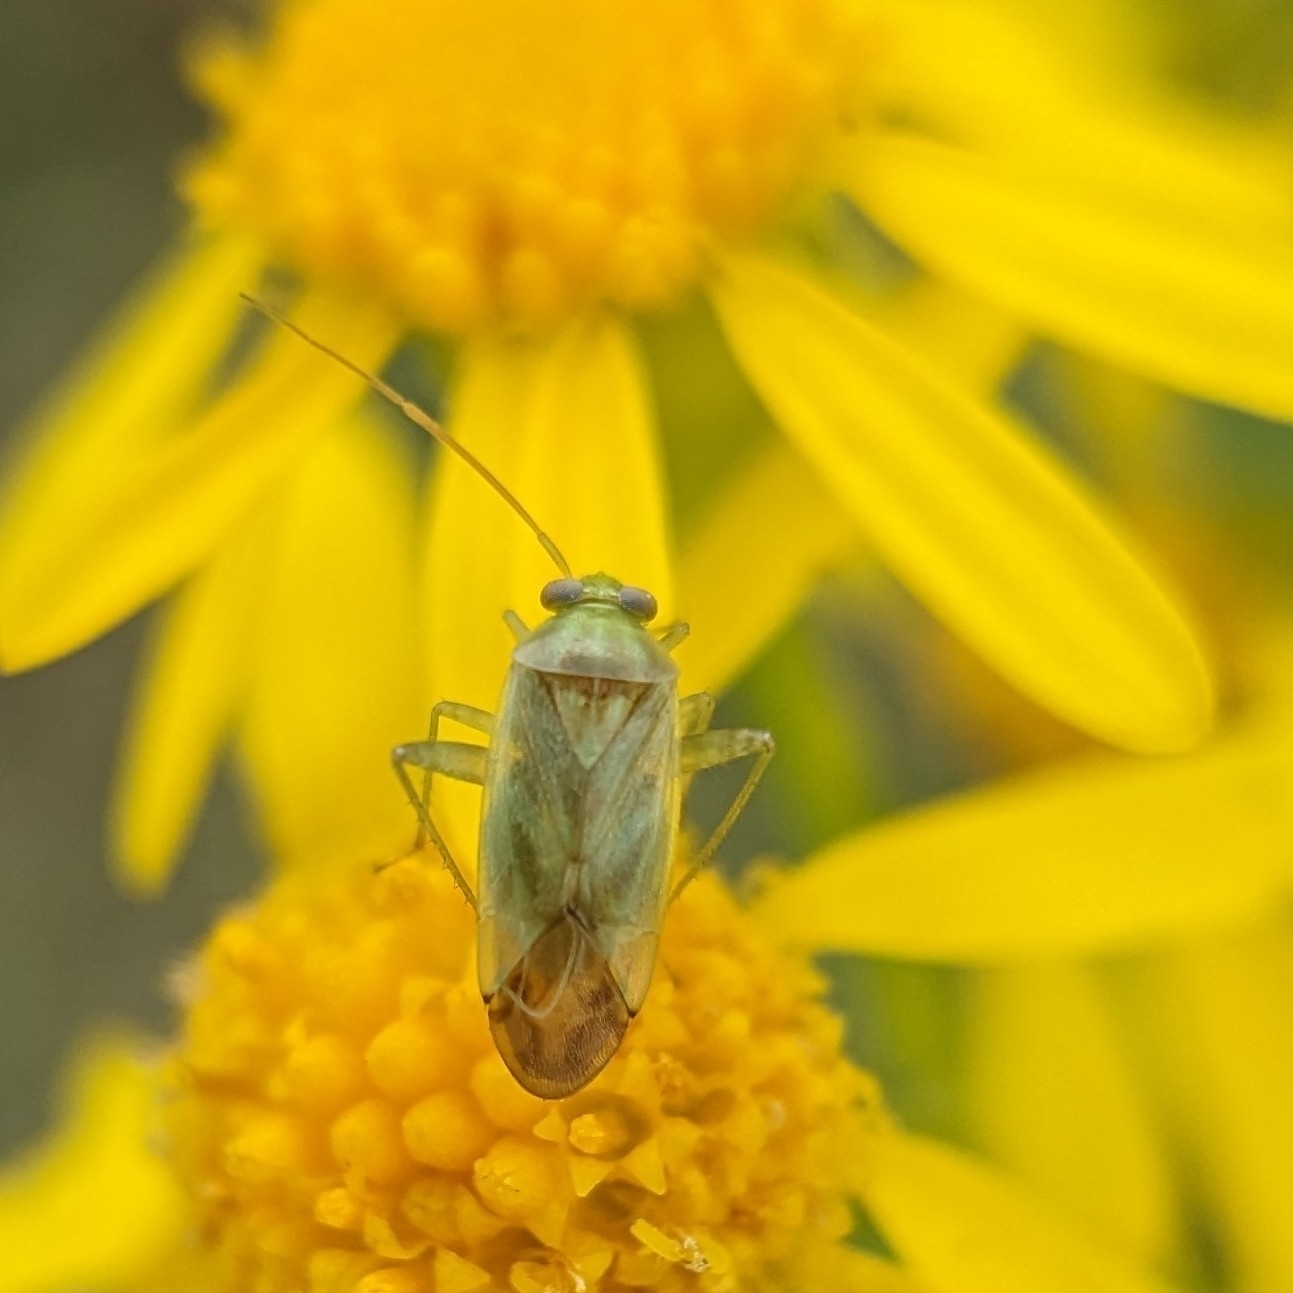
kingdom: Animalia
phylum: Arthropoda
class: Insecta
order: Hemiptera
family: Miridae
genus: Taylorilygus
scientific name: Taylorilygus apicalis
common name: Plant bug
